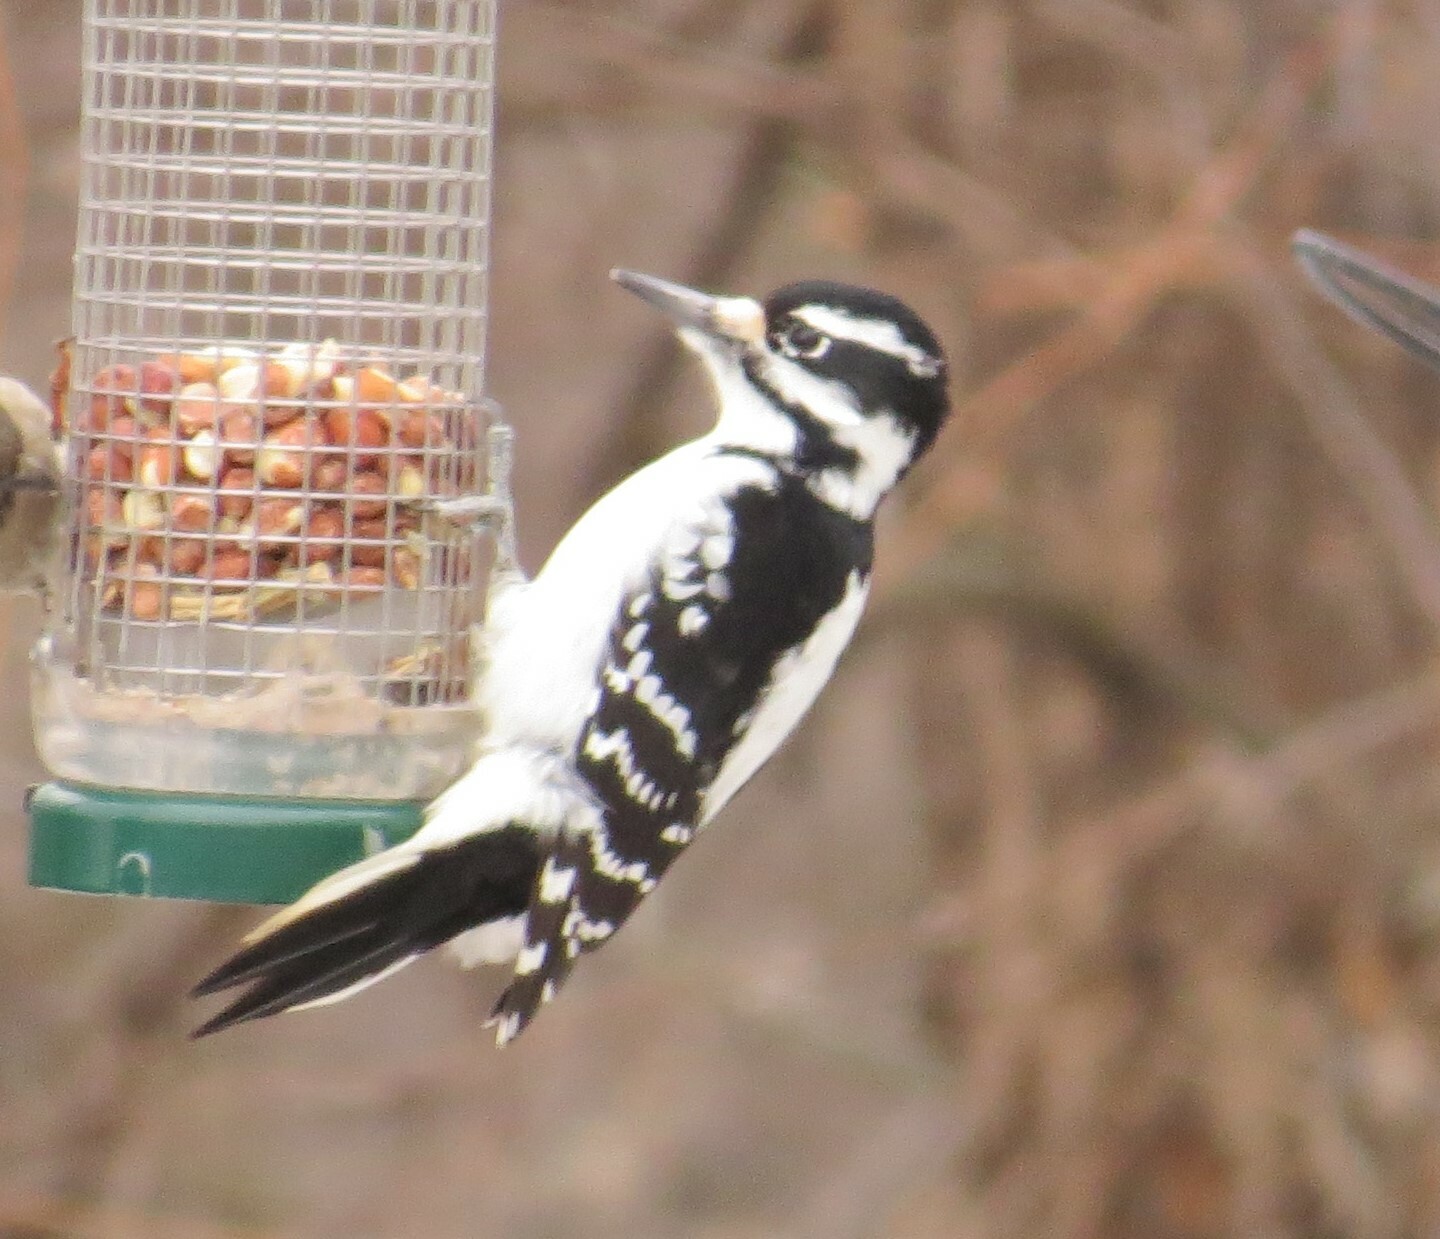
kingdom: Animalia
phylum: Chordata
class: Aves
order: Piciformes
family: Picidae
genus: Leuconotopicus
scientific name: Leuconotopicus villosus
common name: Hairy woodpecker
